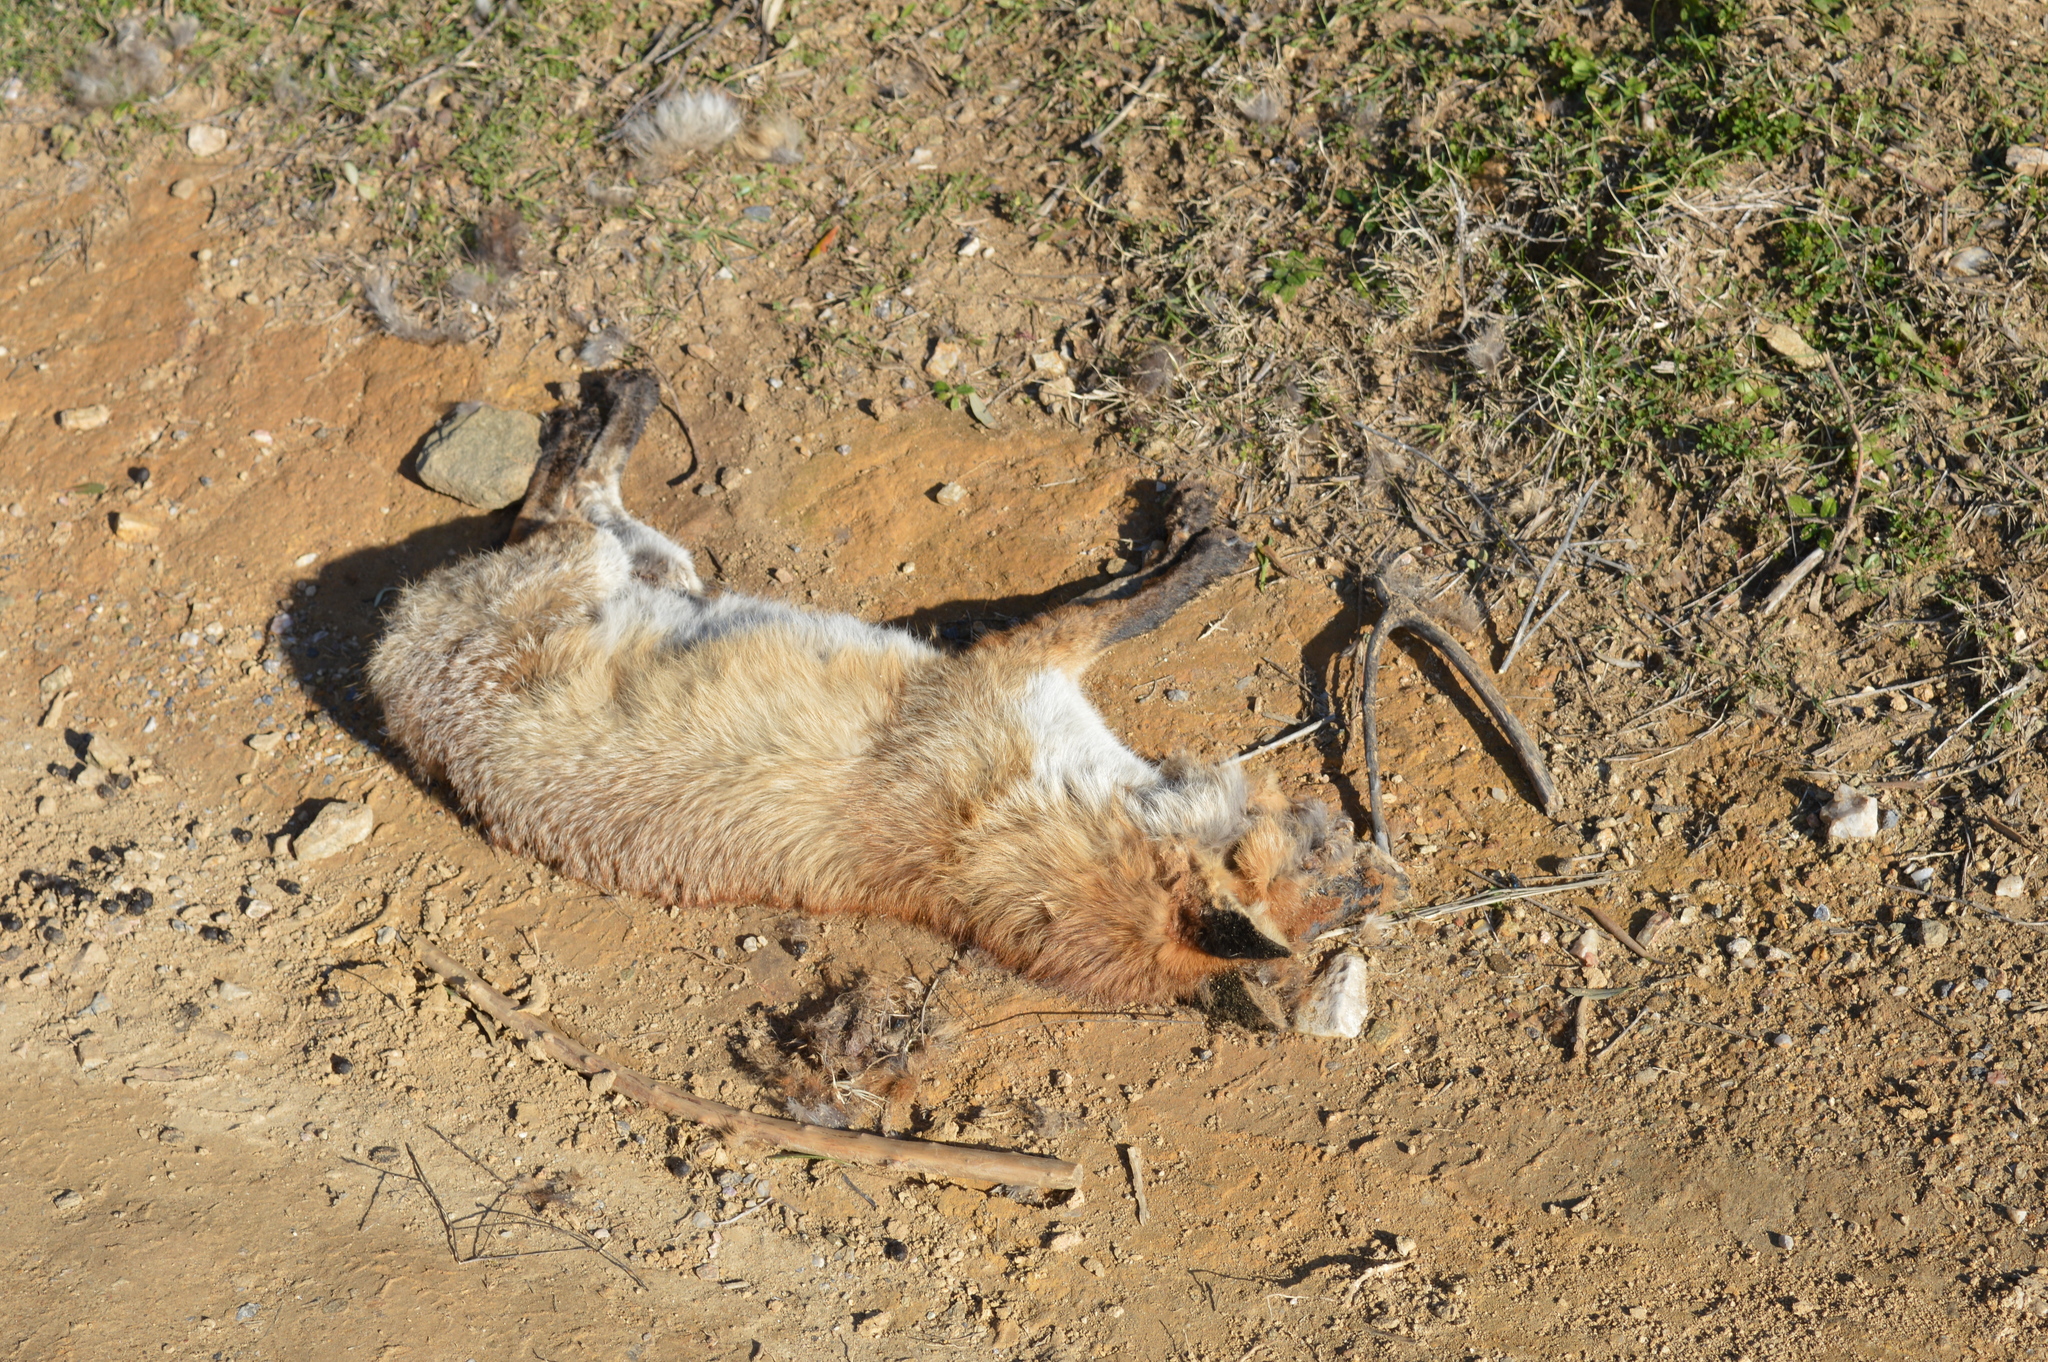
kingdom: Animalia
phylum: Chordata
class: Mammalia
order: Carnivora
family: Canidae
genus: Vulpes
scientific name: Vulpes vulpes
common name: Red fox
